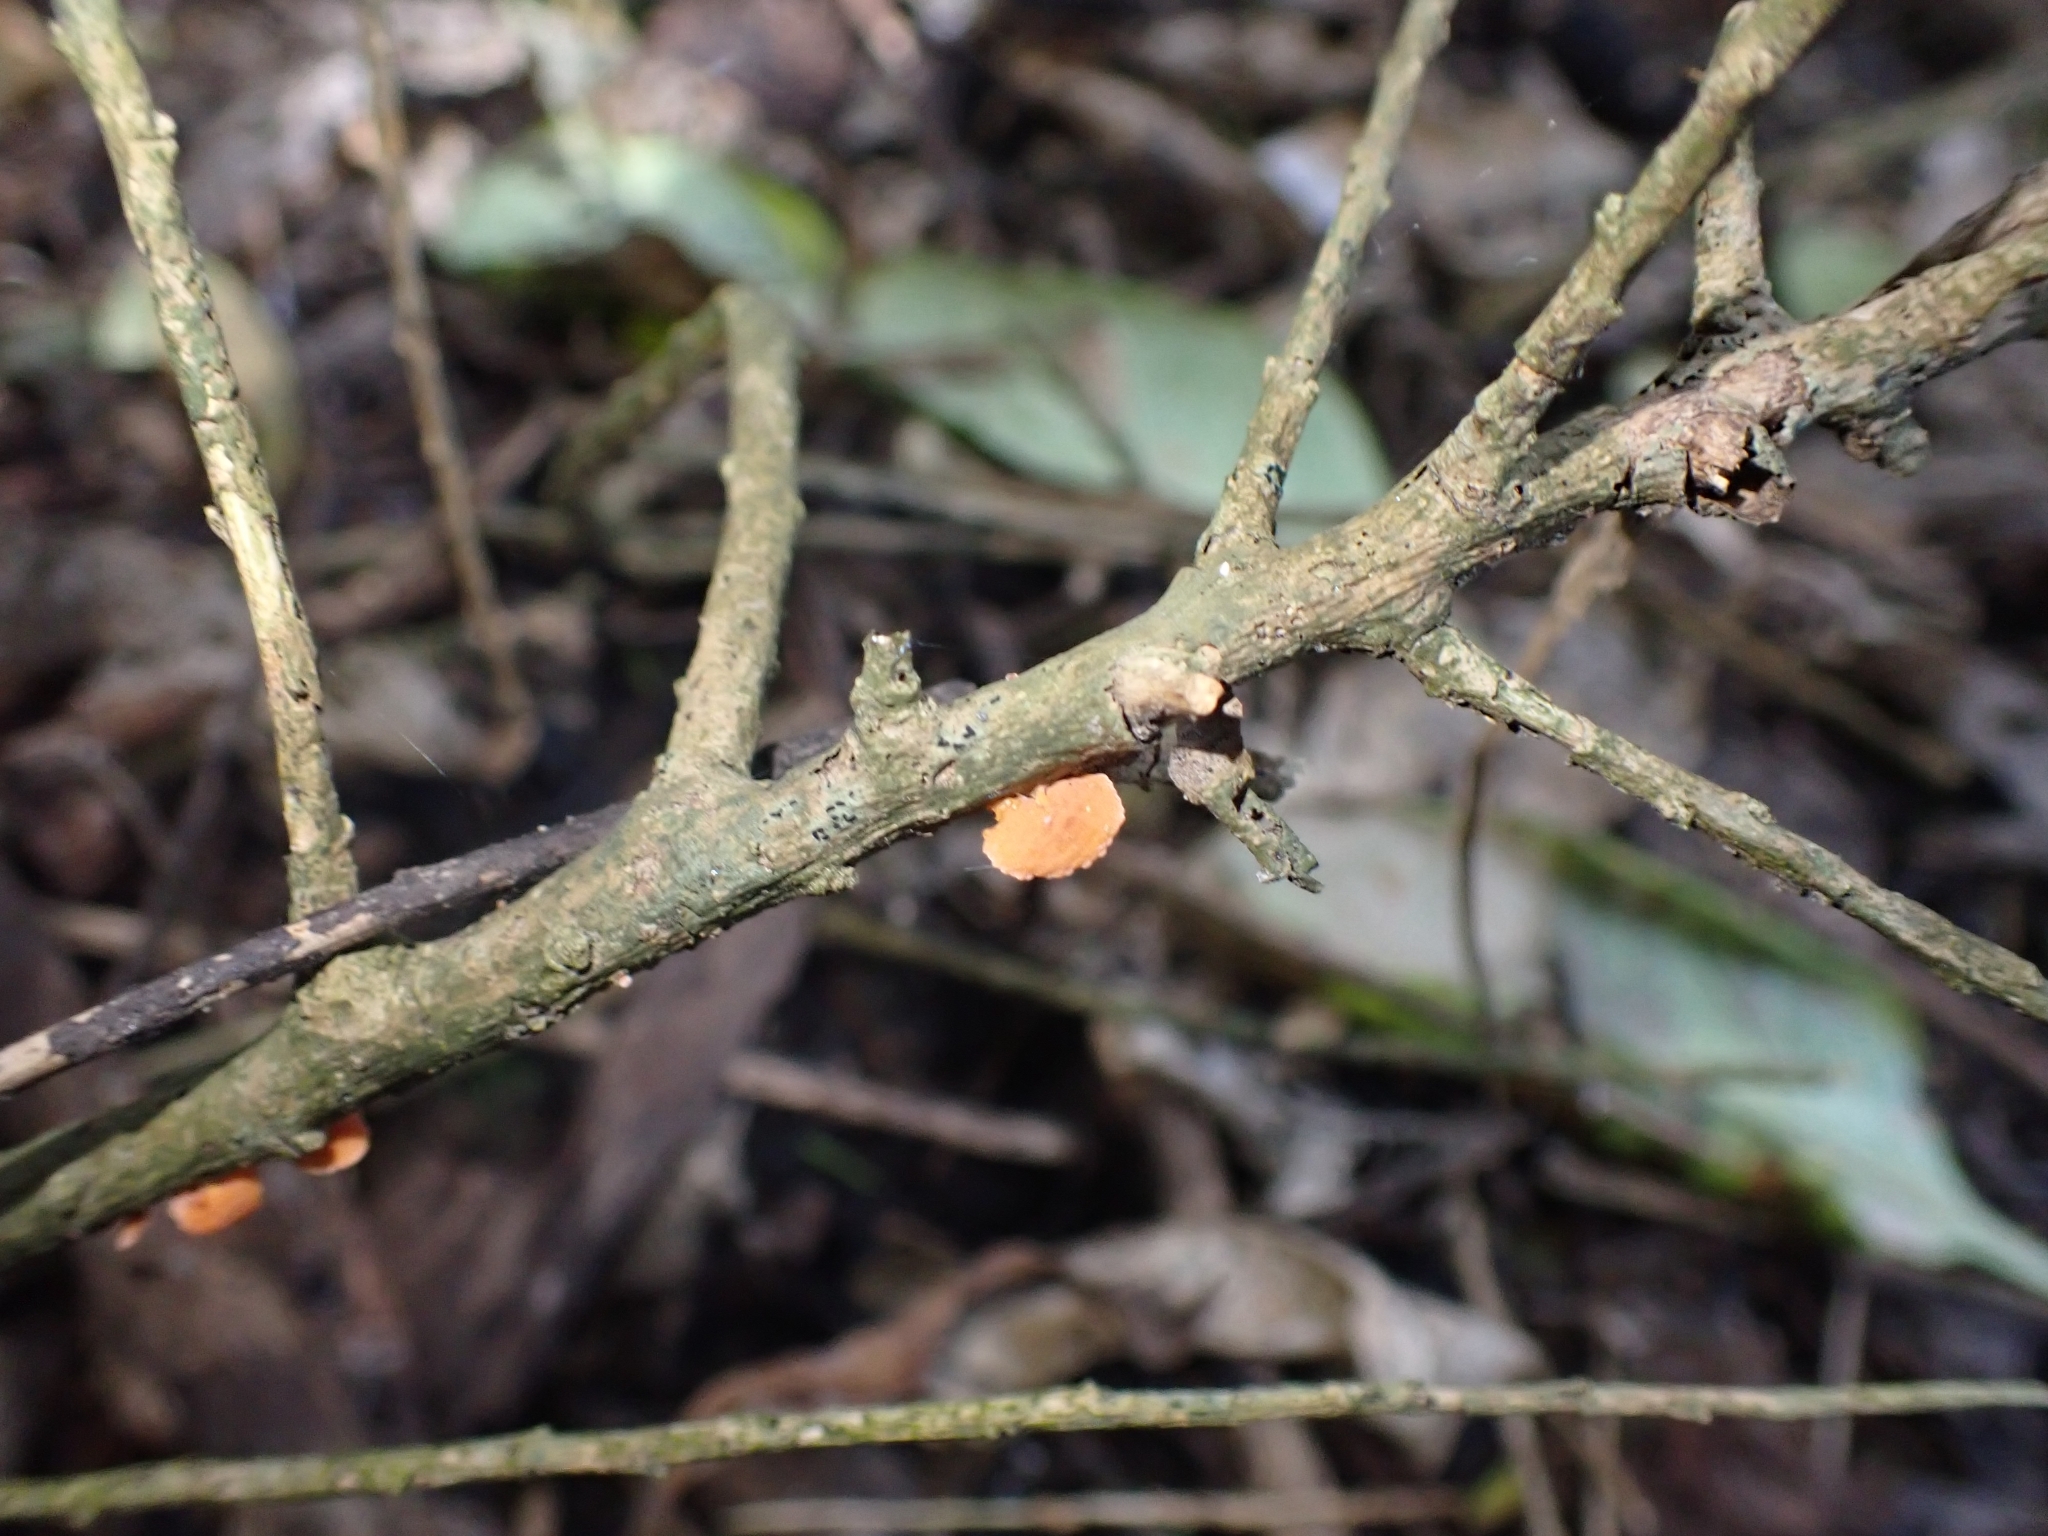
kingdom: Fungi
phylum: Basidiomycota
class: Agaricomycetes
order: Agaricales
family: Mycenaceae
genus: Favolaschia
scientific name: Favolaschia claudopus
